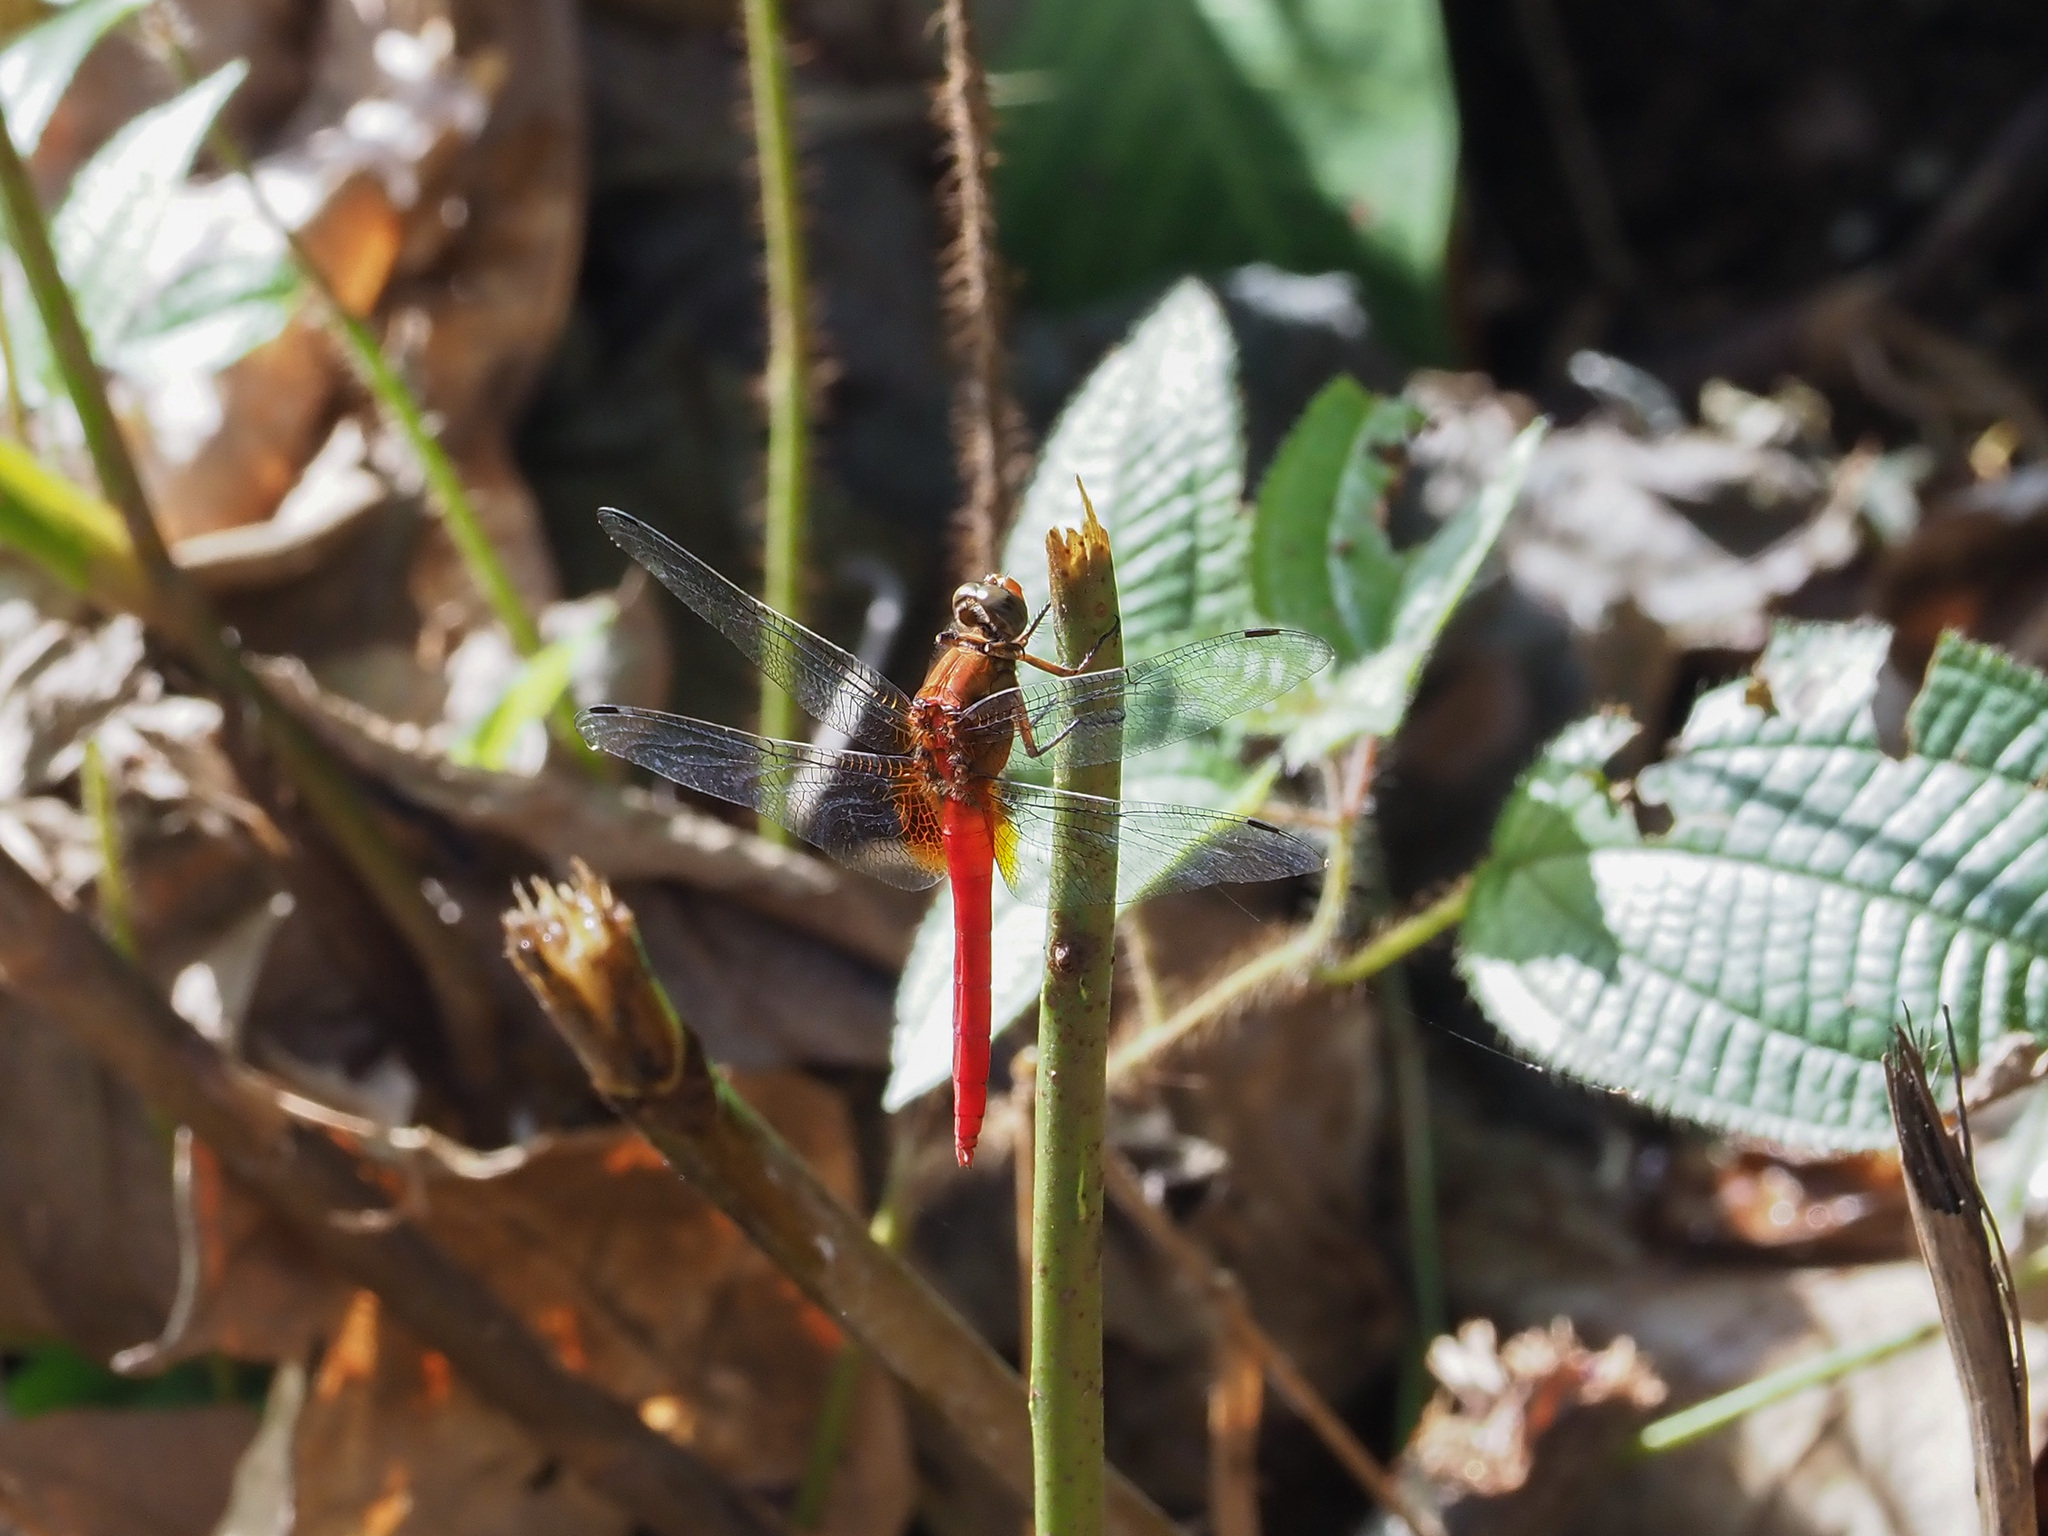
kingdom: Animalia
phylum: Arthropoda
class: Insecta
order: Odonata
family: Libellulidae
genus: Orthetrum
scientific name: Orthetrum testaceum
